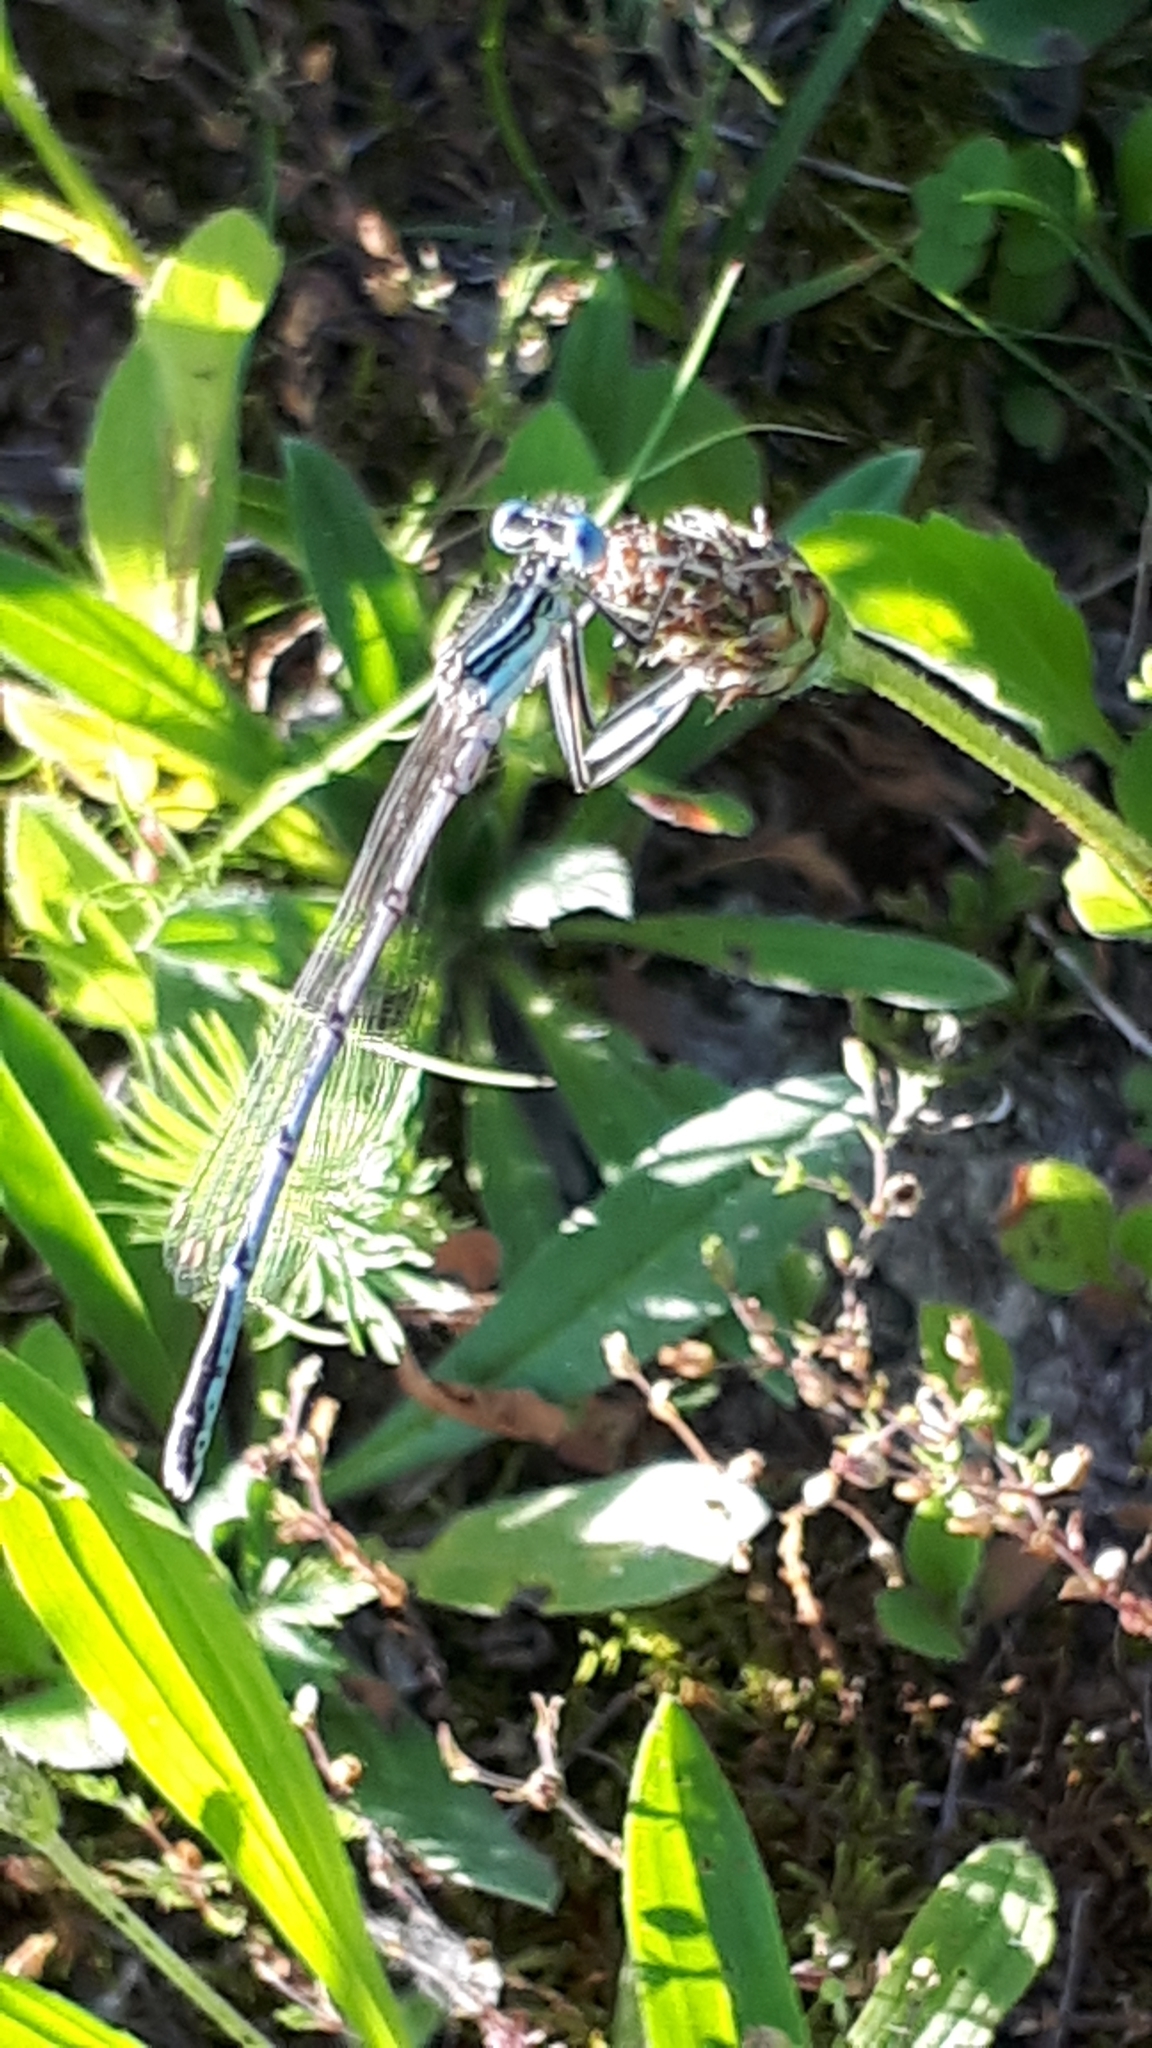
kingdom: Animalia
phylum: Arthropoda
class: Insecta
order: Odonata
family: Platycnemididae
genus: Platycnemis
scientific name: Platycnemis pennipes
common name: White-legged damselfly
